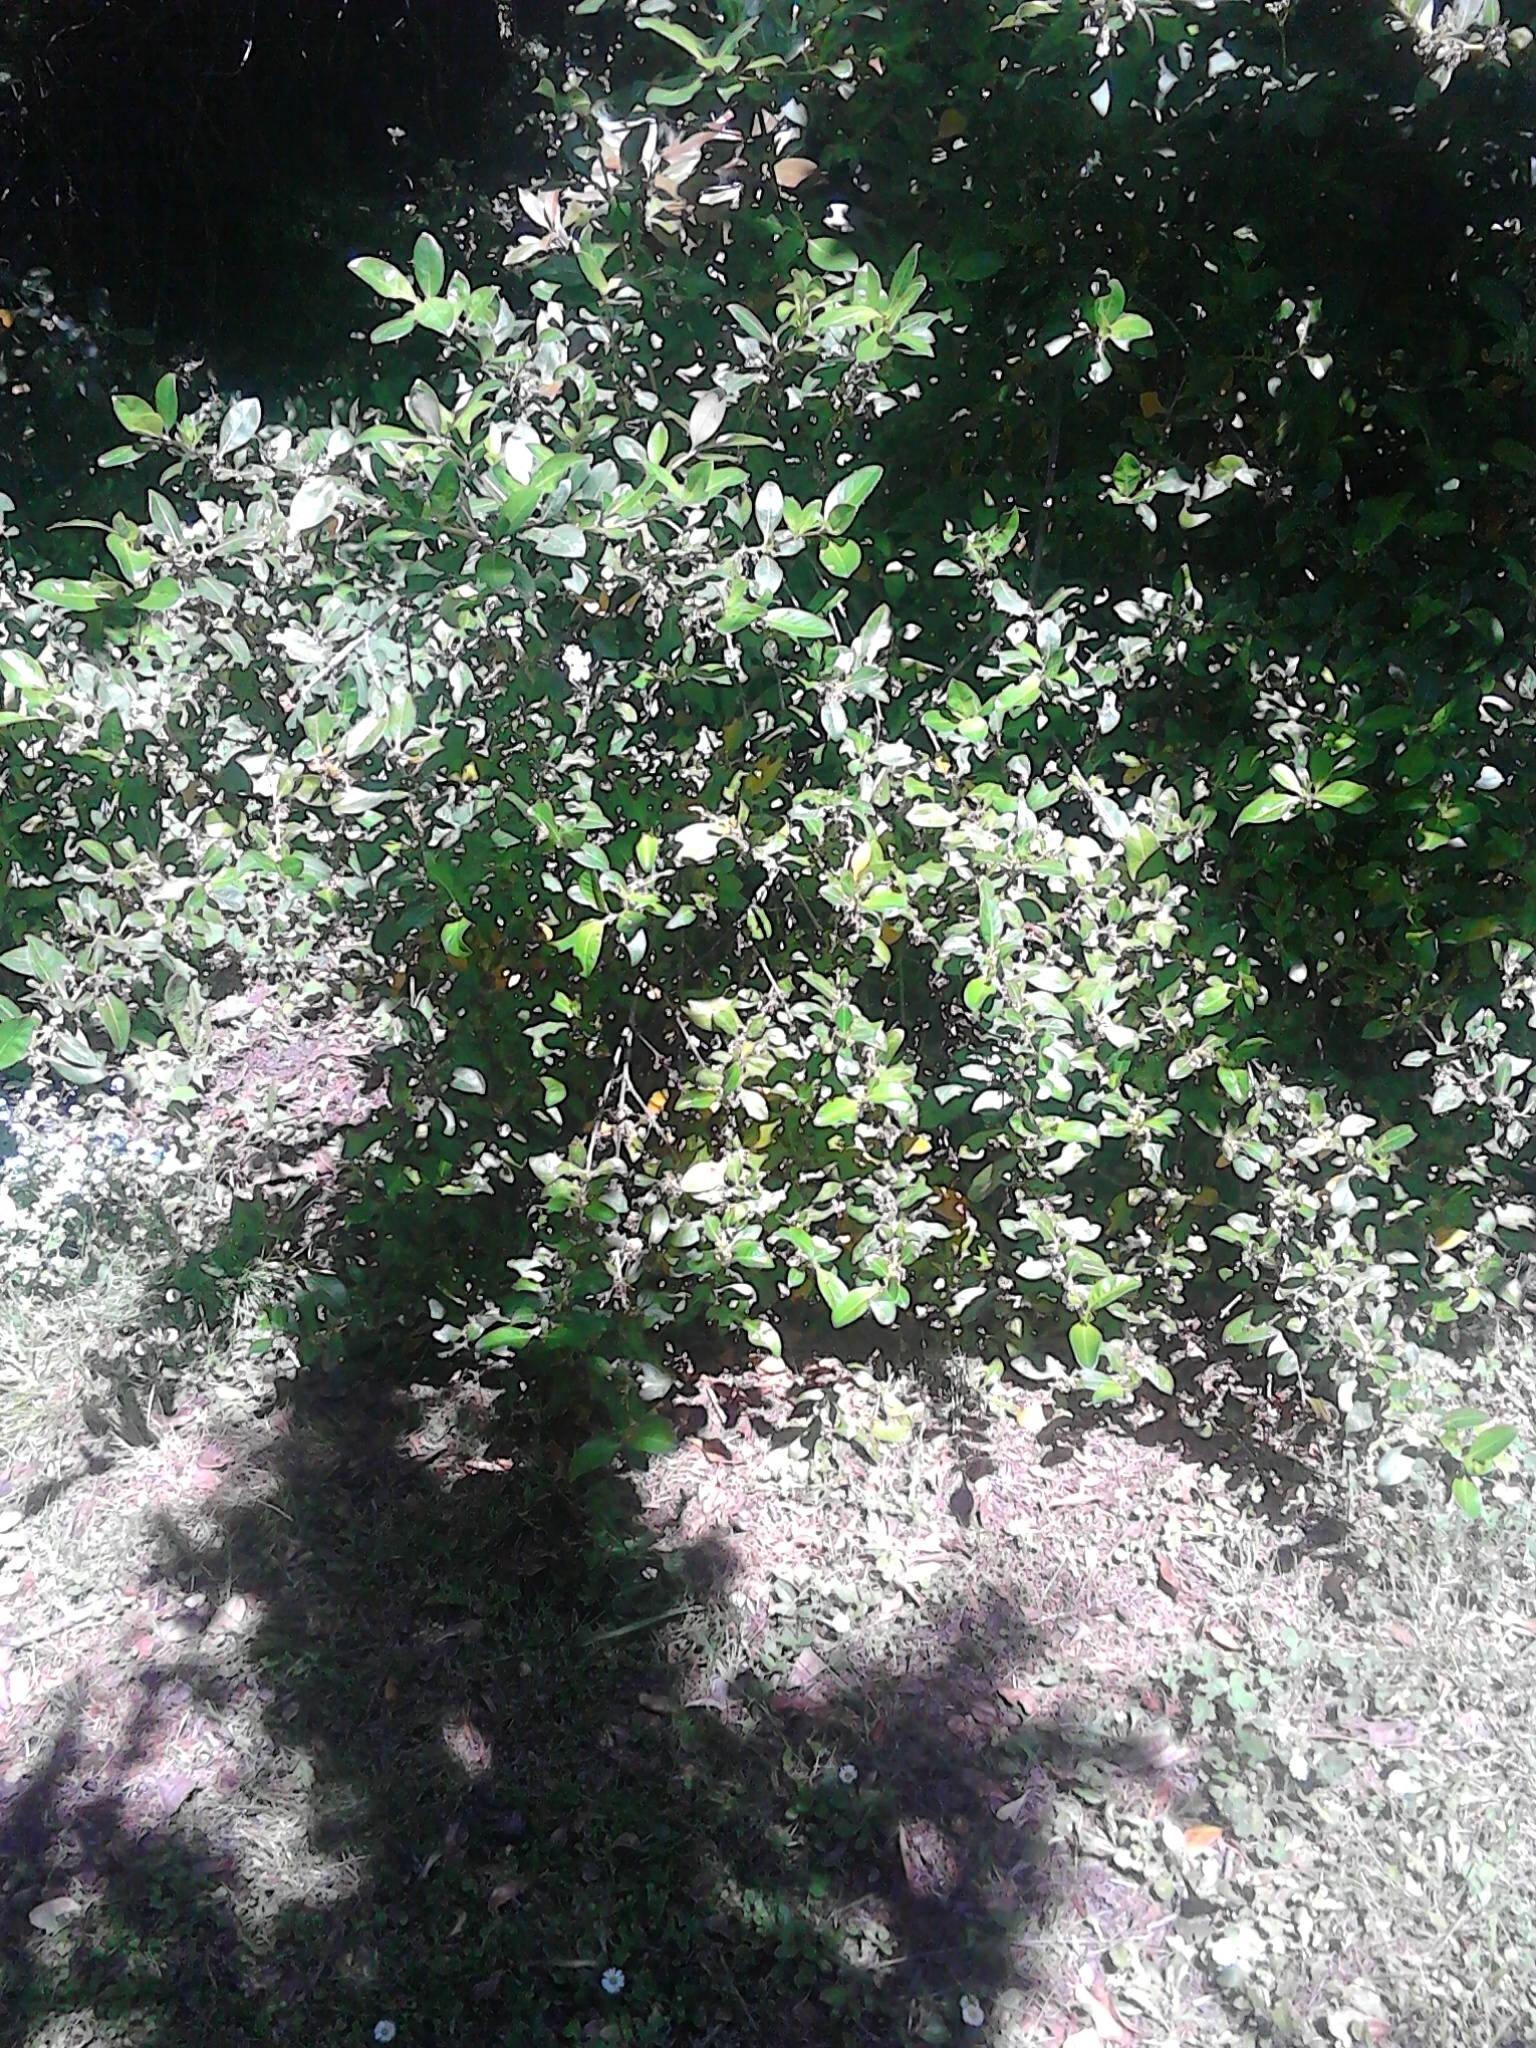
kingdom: Plantae
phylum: Tracheophyta
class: Magnoliopsida
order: Gentianales
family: Rubiaceae
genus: Coprosma
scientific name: Coprosma robusta
